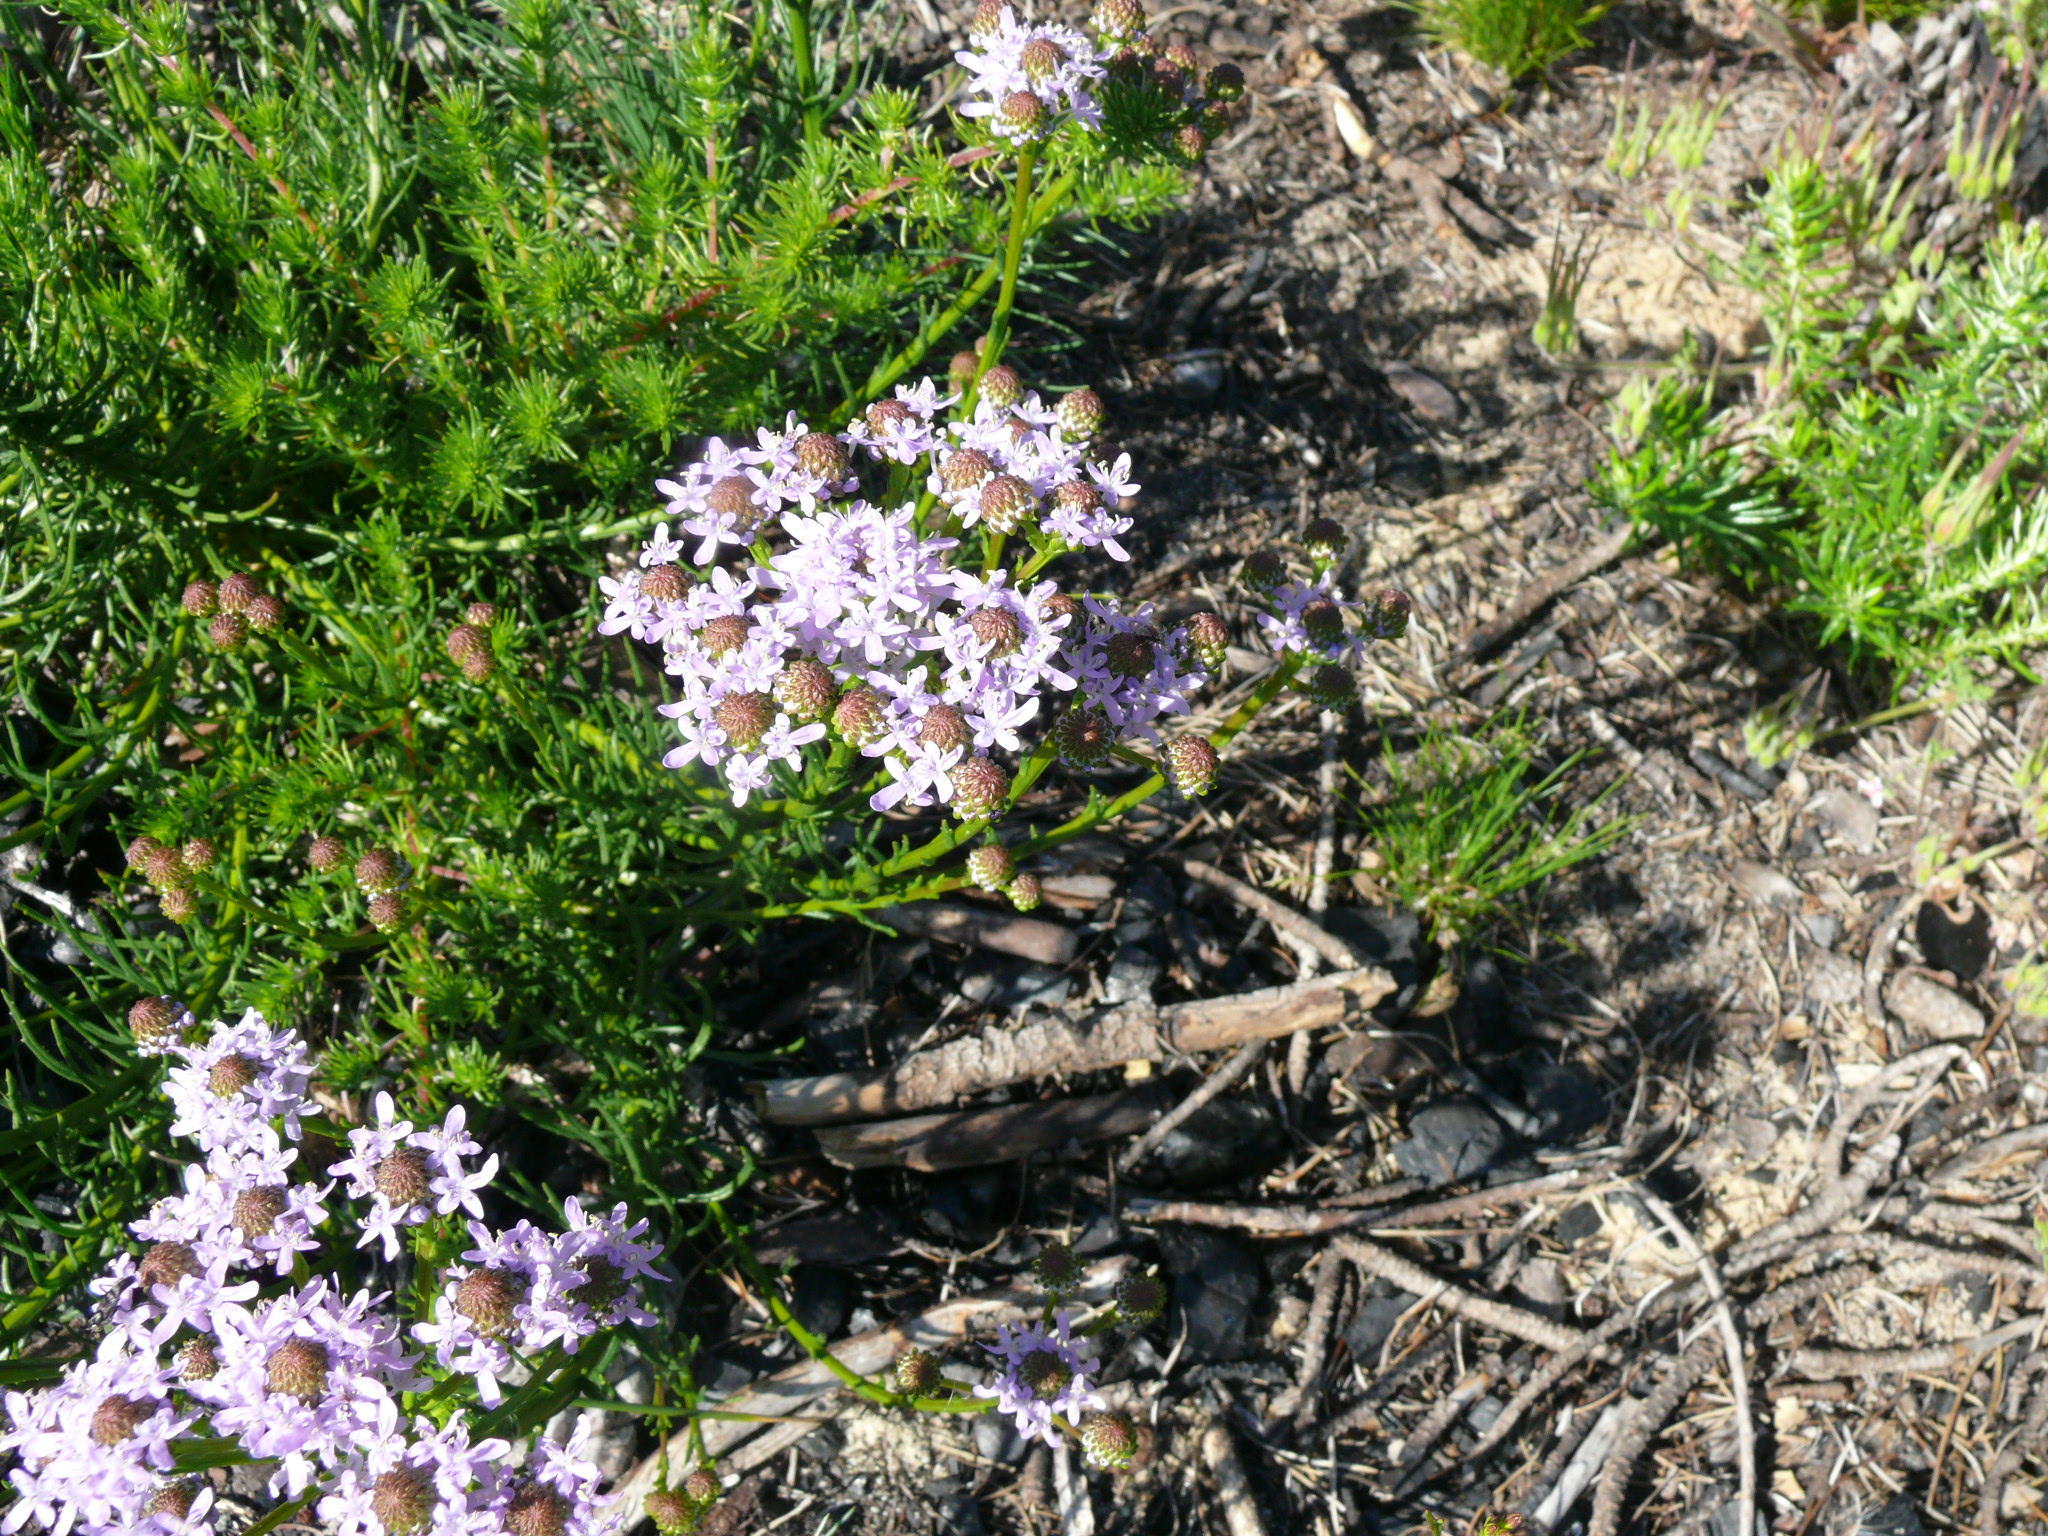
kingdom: Plantae
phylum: Tracheophyta
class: Magnoliopsida
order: Lamiales
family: Scrophulariaceae
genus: Pseudoselago
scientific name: Pseudoselago spuria
